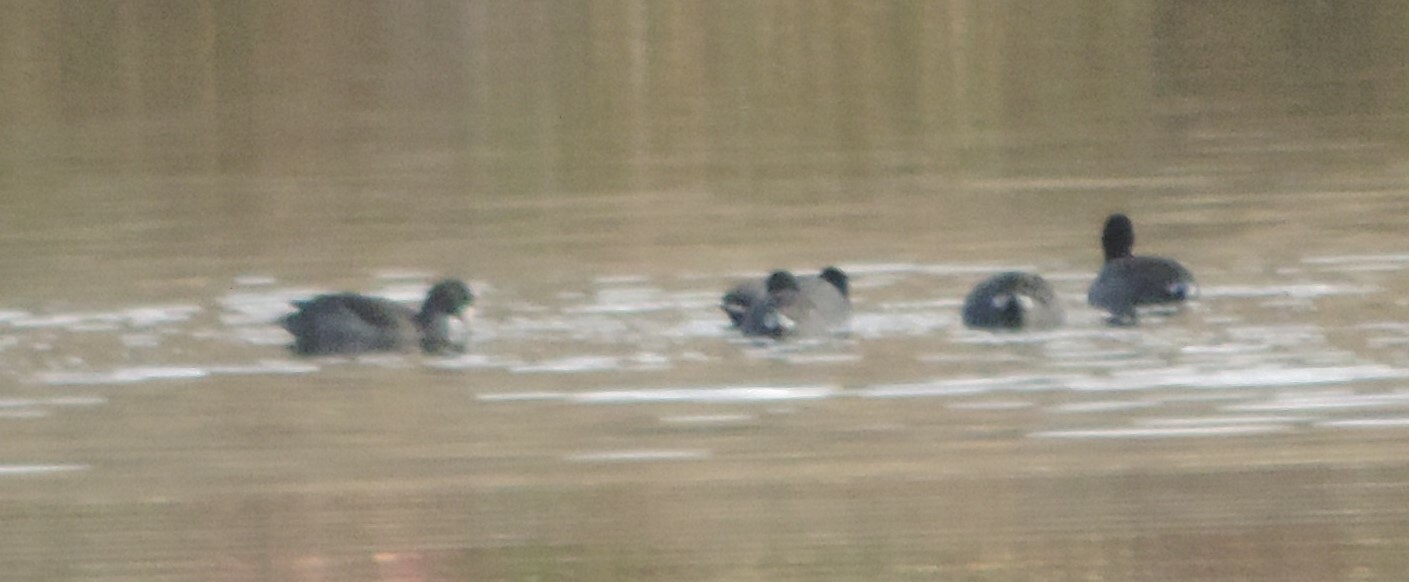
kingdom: Animalia
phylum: Chordata
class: Aves
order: Gruiformes
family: Rallidae
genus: Fulica
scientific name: Fulica americana
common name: American coot
